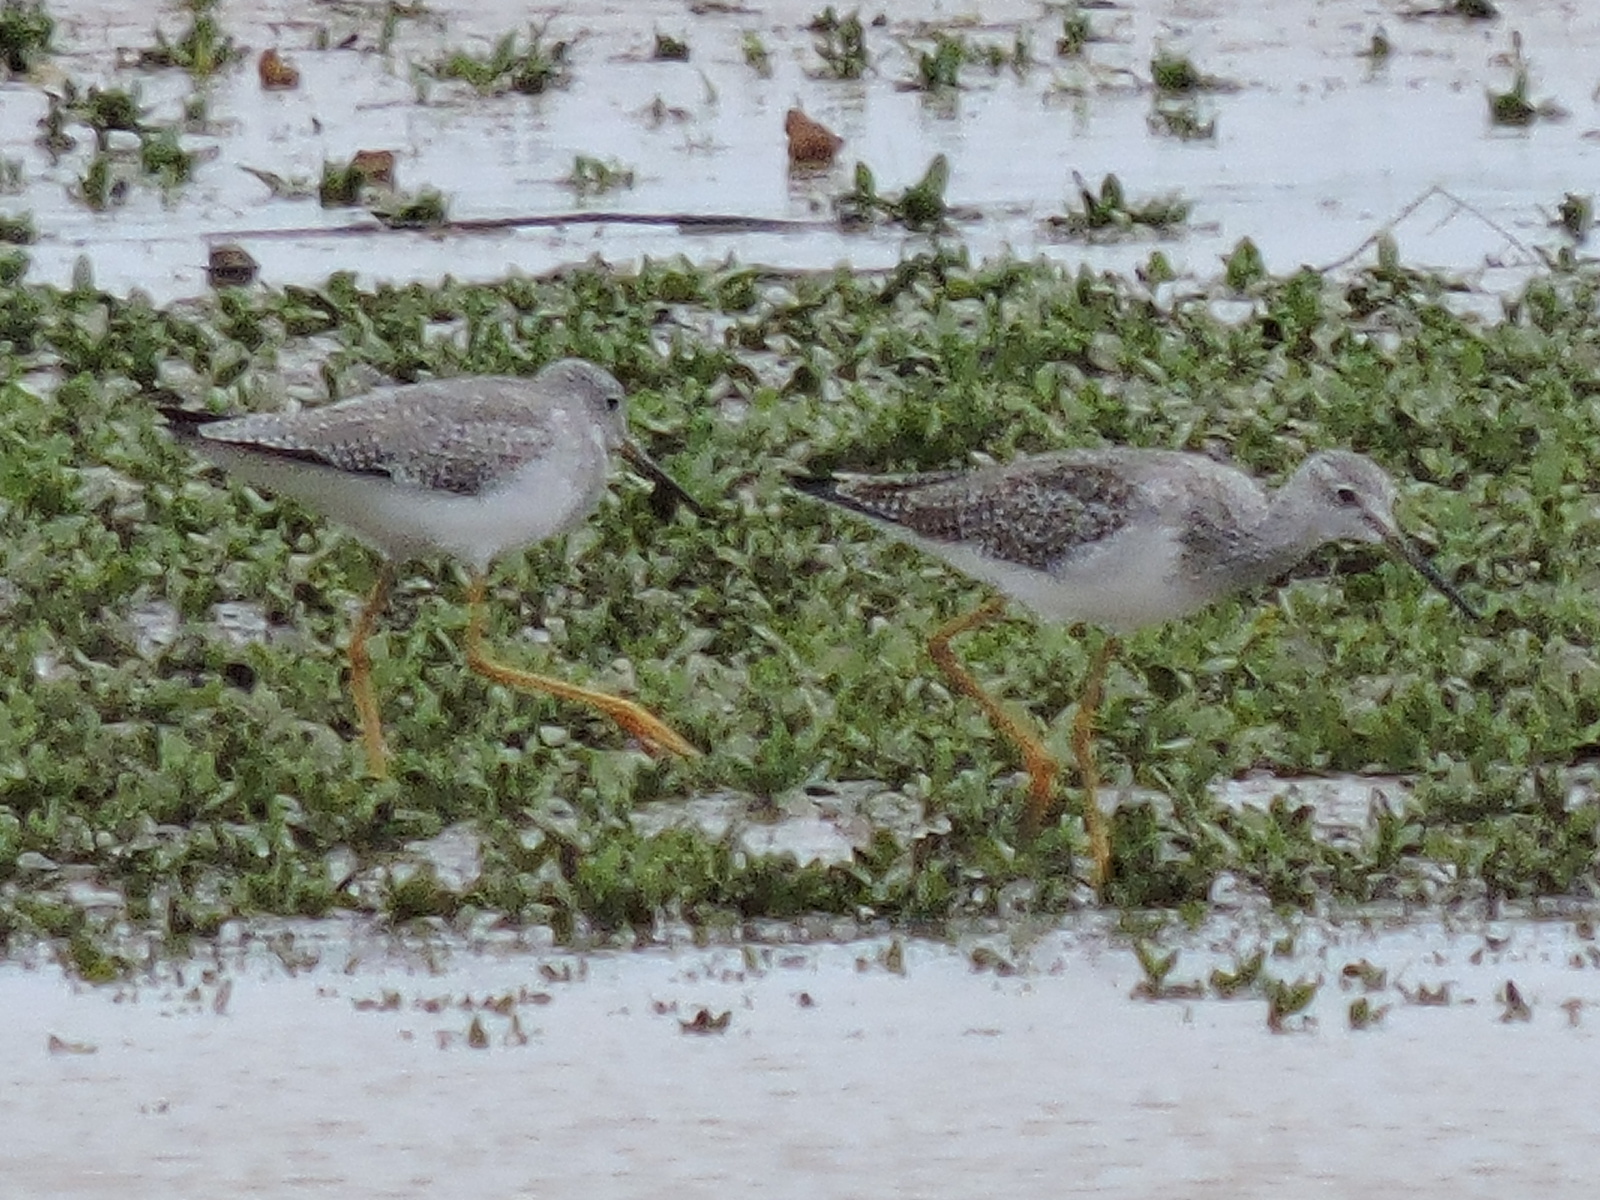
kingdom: Animalia
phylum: Chordata
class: Aves
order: Charadriiformes
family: Scolopacidae
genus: Tringa
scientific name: Tringa melanoleuca
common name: Greater yellowlegs
